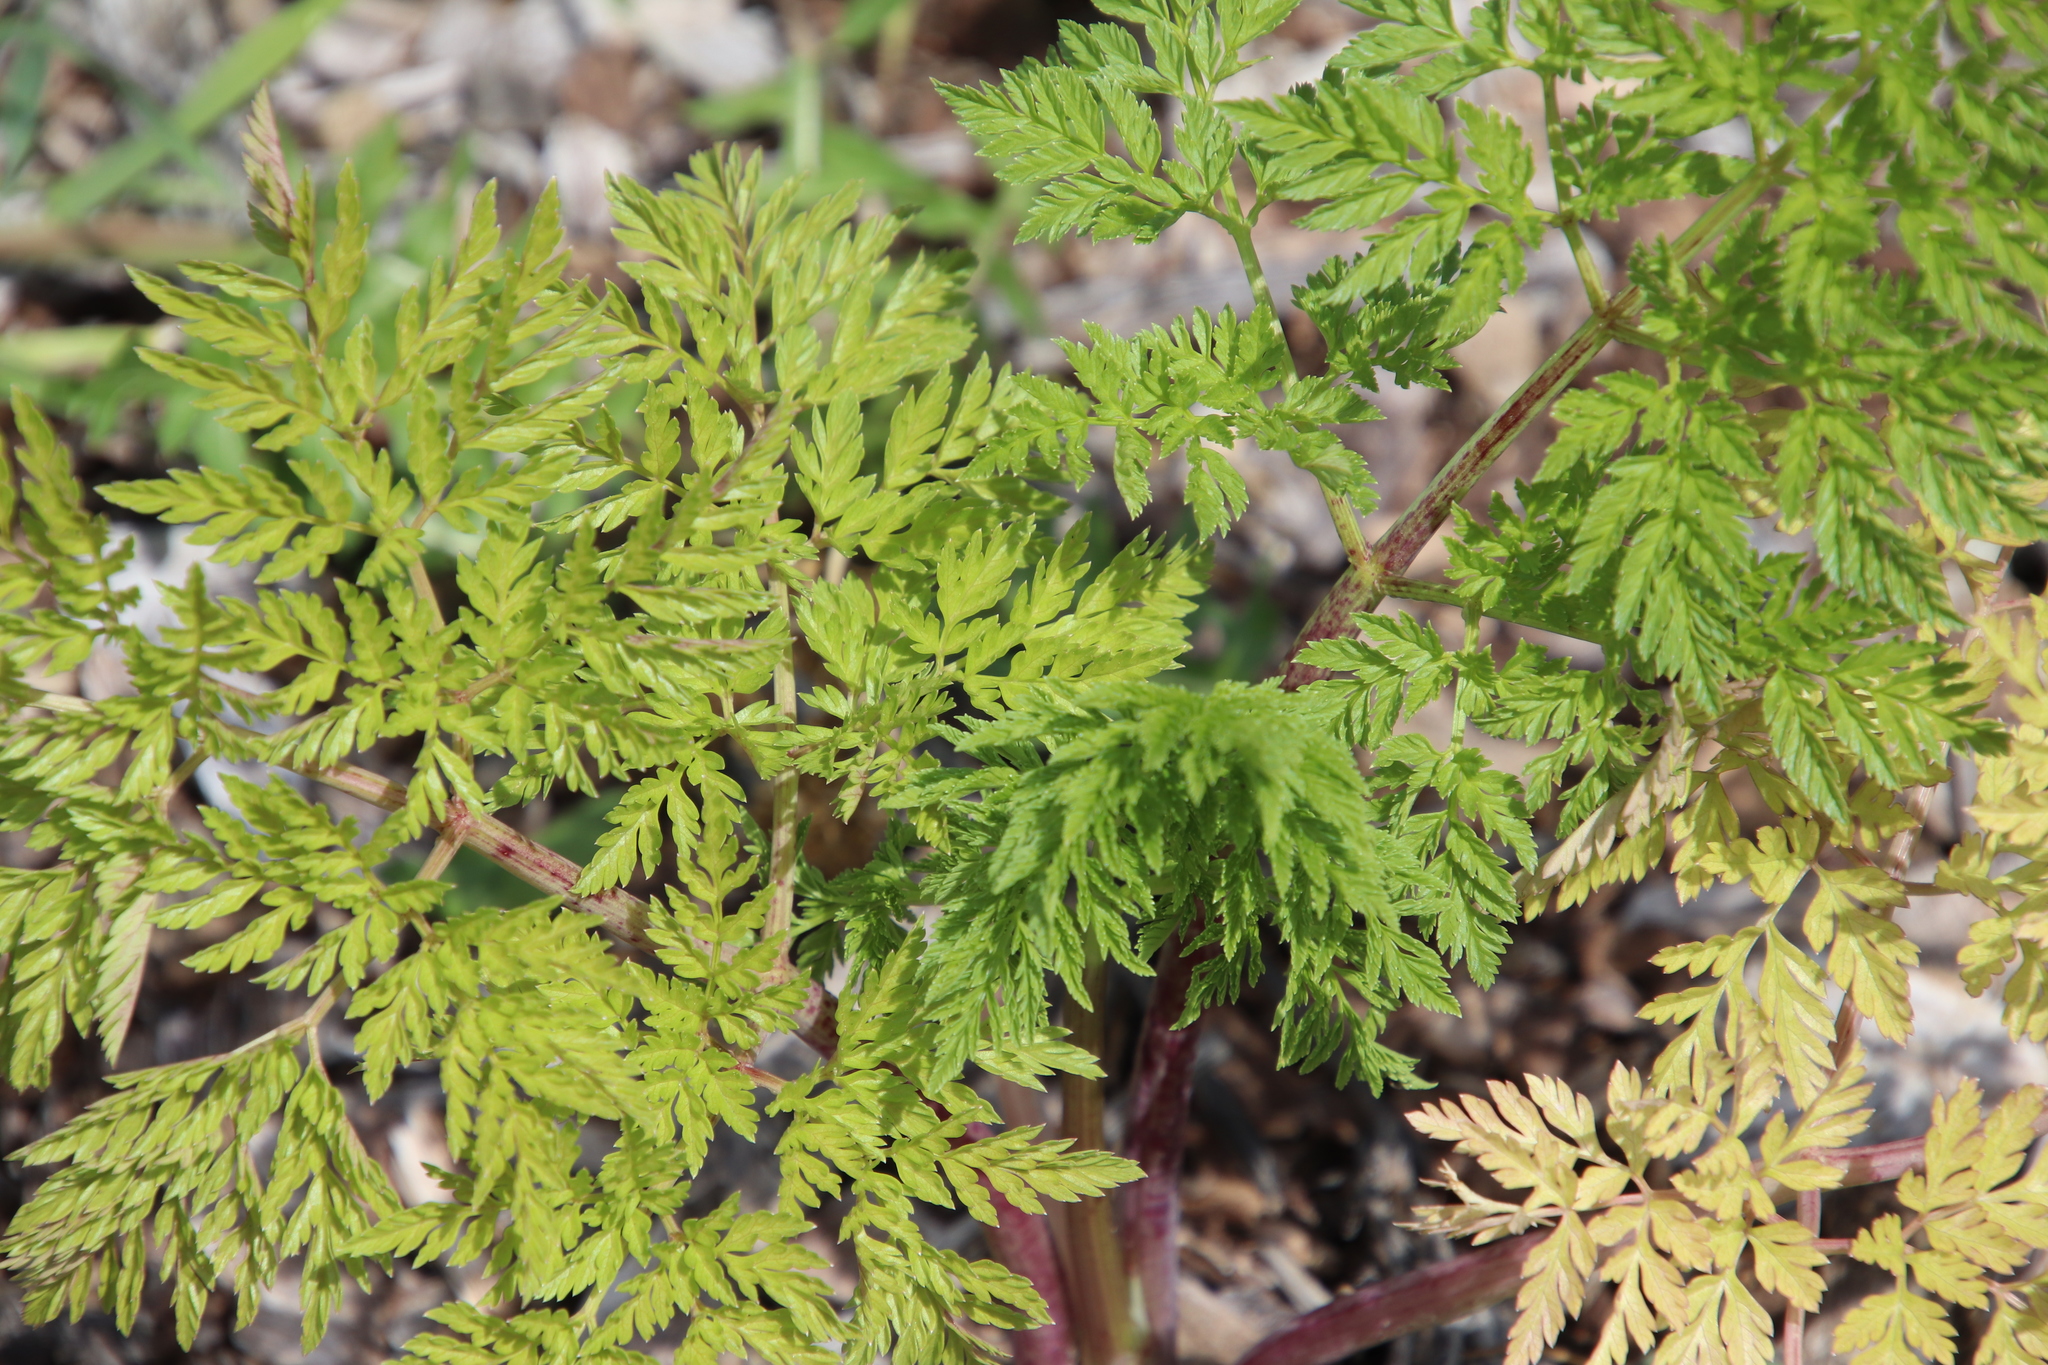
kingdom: Plantae
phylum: Tracheophyta
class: Magnoliopsida
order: Apiales
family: Apiaceae
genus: Conium
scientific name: Conium maculatum
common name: Hemlock
